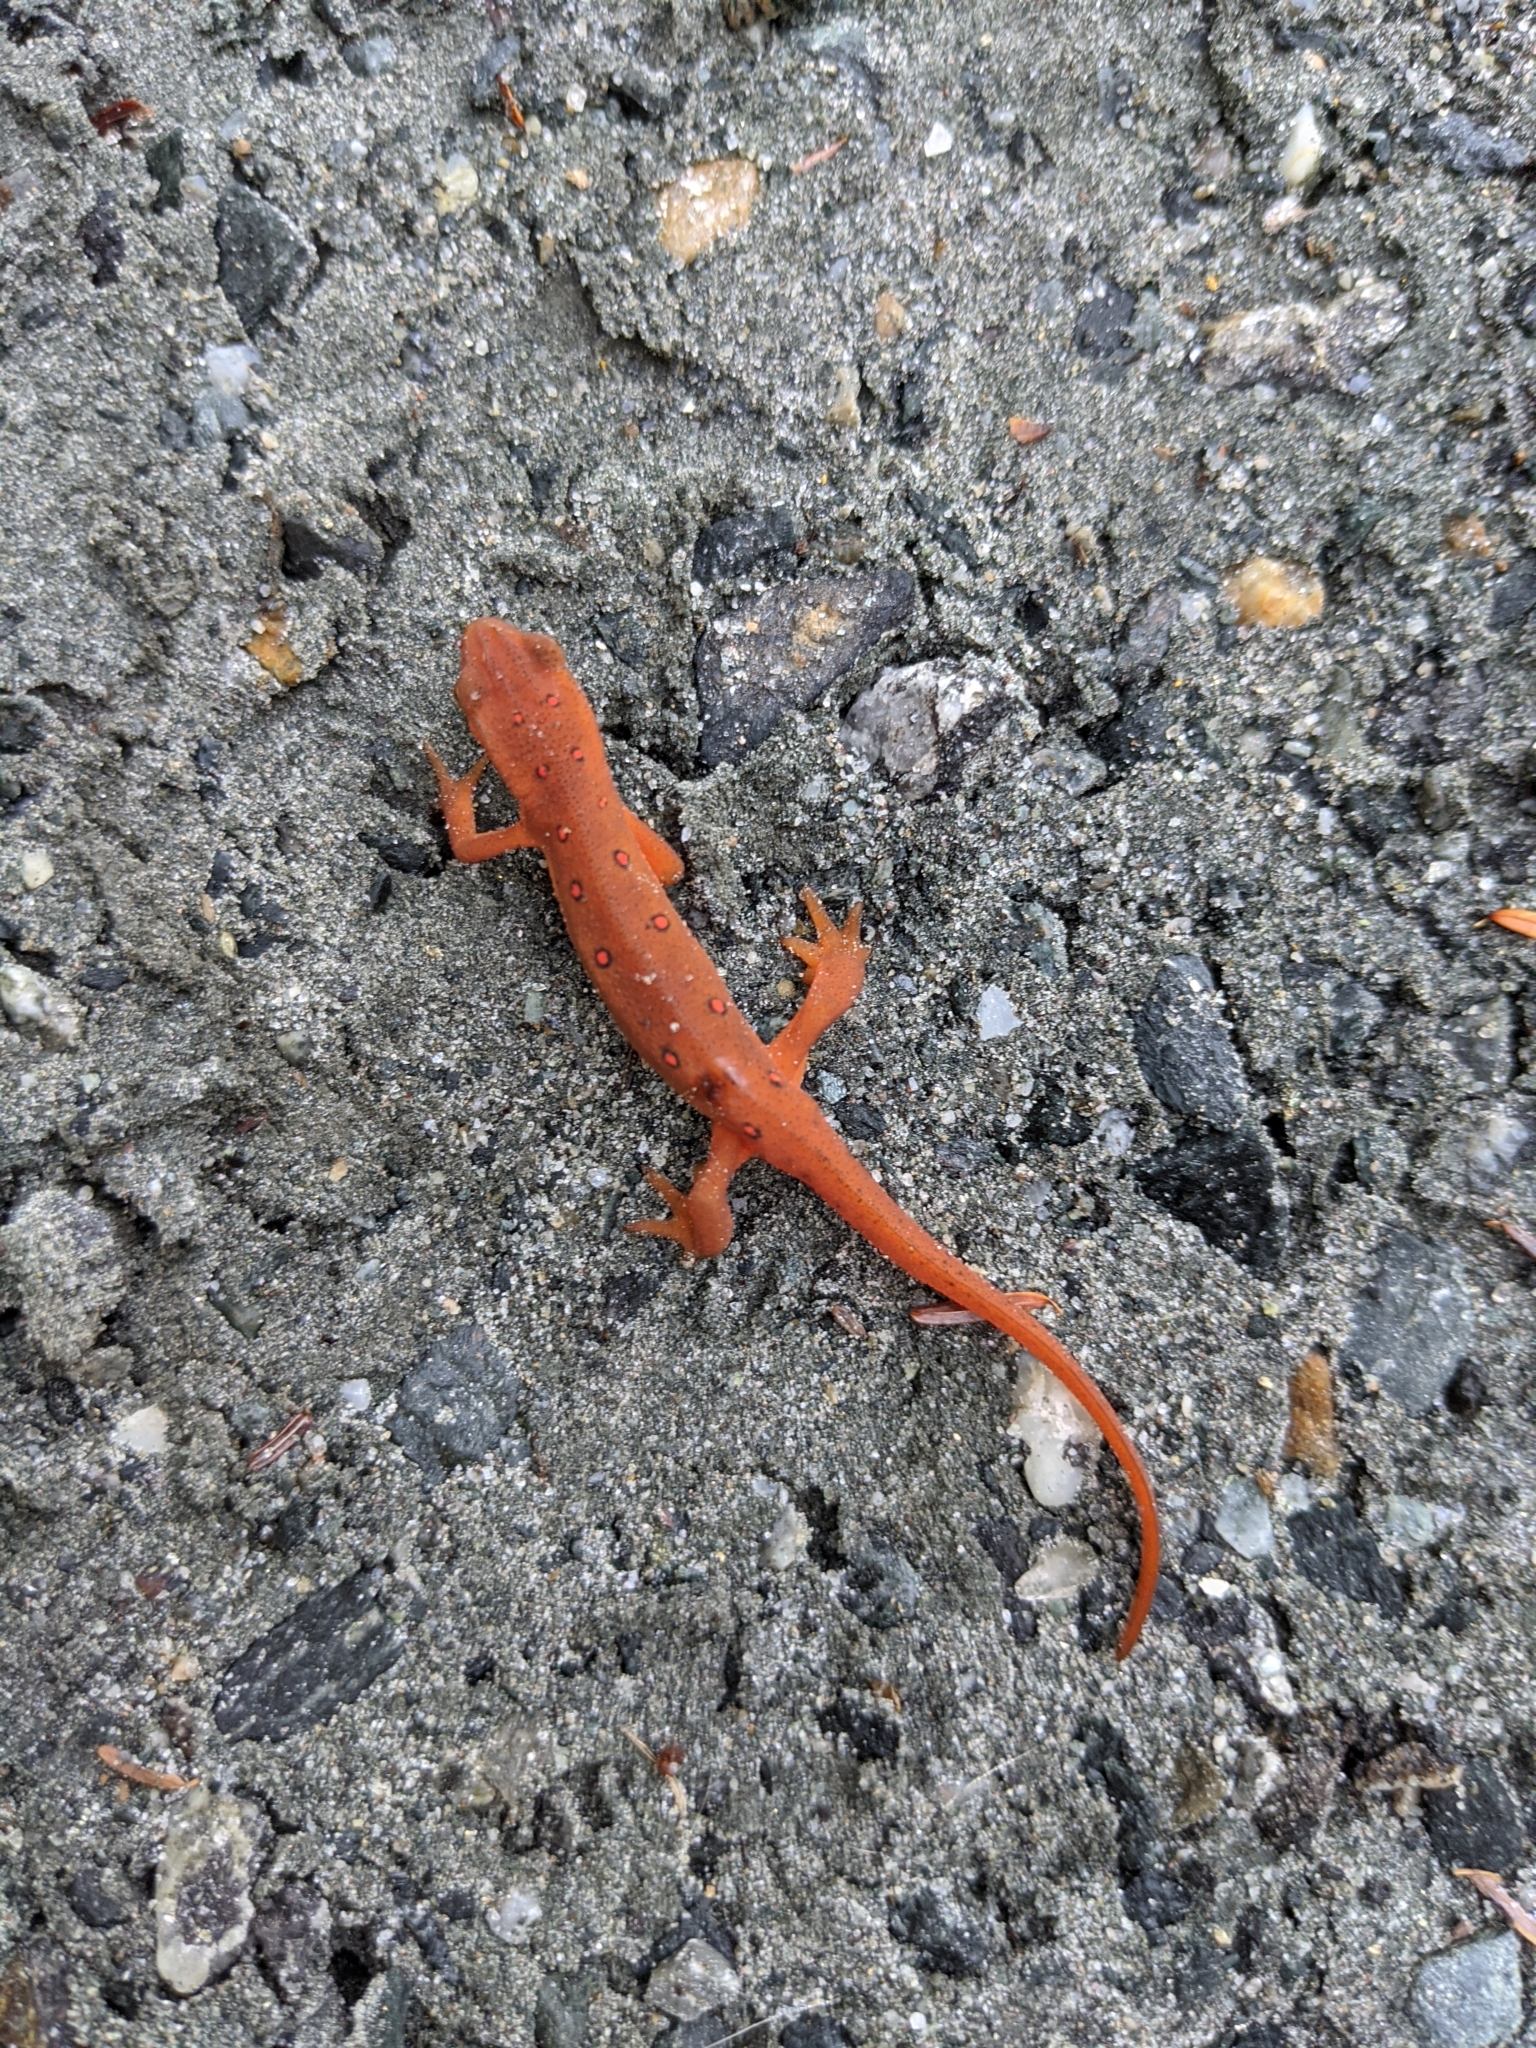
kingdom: Animalia
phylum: Chordata
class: Amphibia
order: Caudata
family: Salamandridae
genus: Notophthalmus
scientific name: Notophthalmus viridescens
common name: Eastern newt
